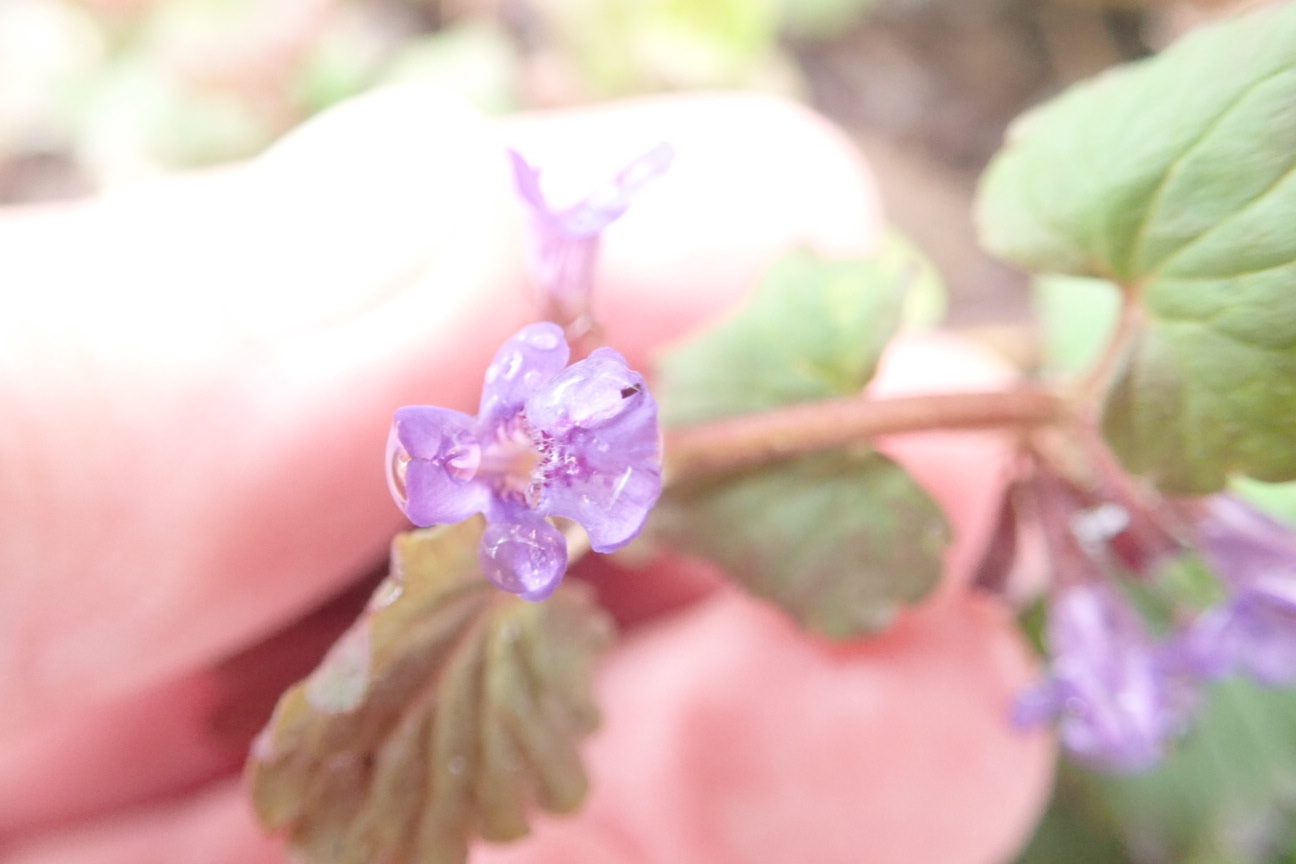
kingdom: Plantae
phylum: Tracheophyta
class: Magnoliopsida
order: Lamiales
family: Lamiaceae
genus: Glechoma
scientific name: Glechoma hederacea
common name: Ground ivy
